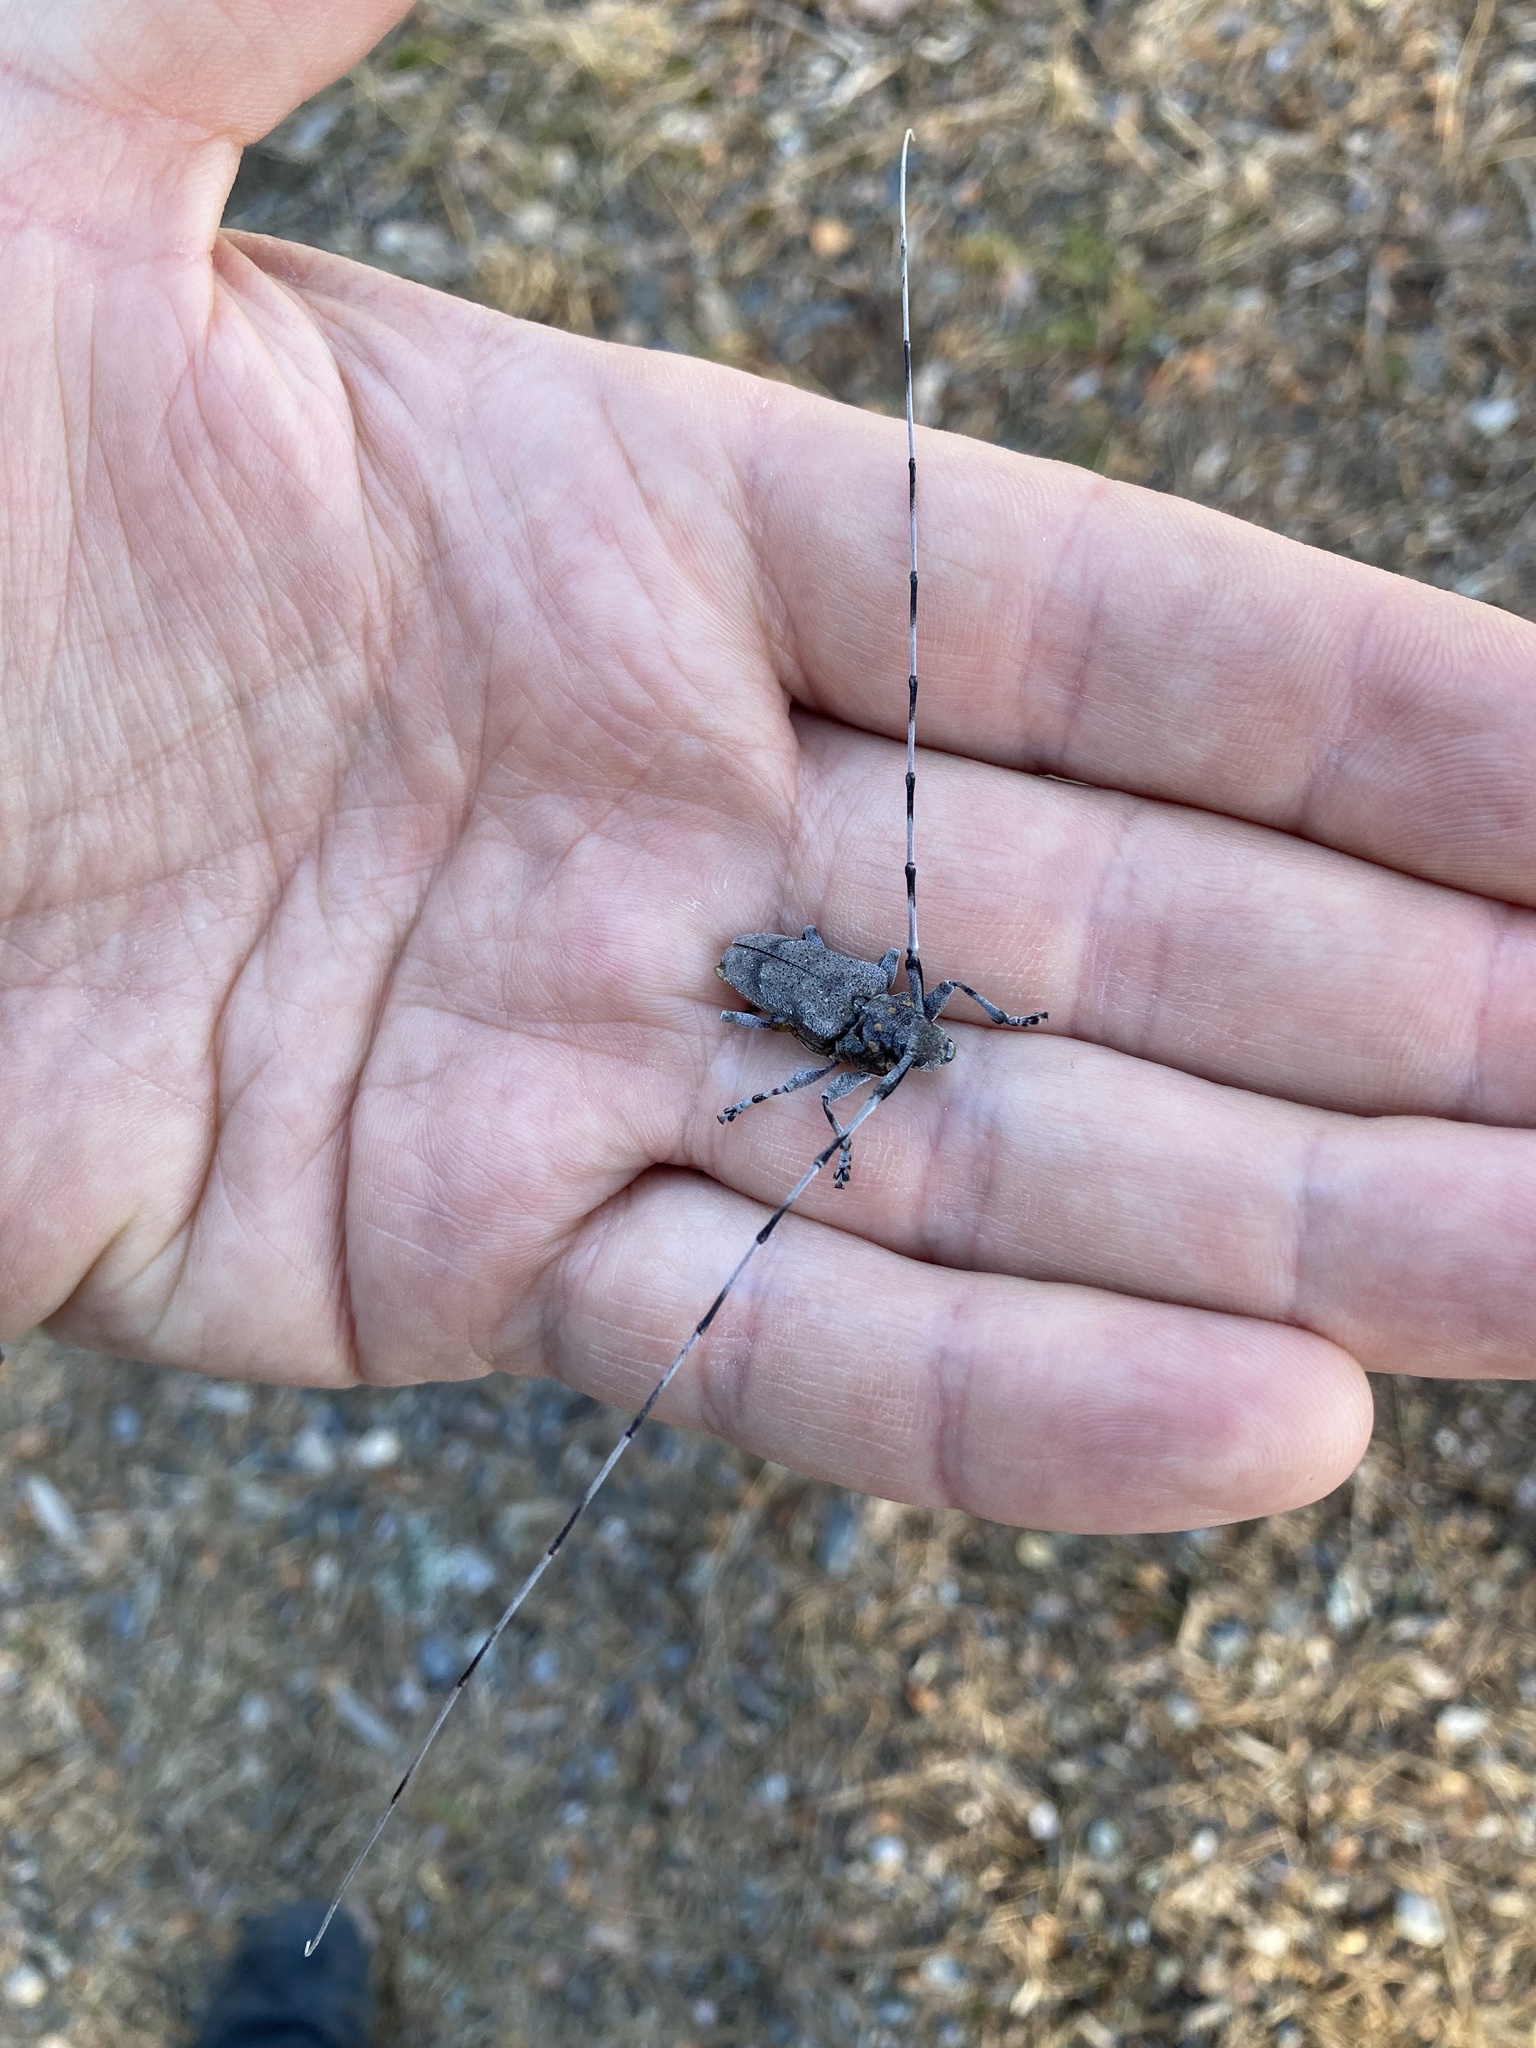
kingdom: Animalia
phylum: Arthropoda
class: Insecta
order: Coleoptera
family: Cerambycidae
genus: Acanthocinus
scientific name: Acanthocinus aedilis
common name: Timberman beetle
